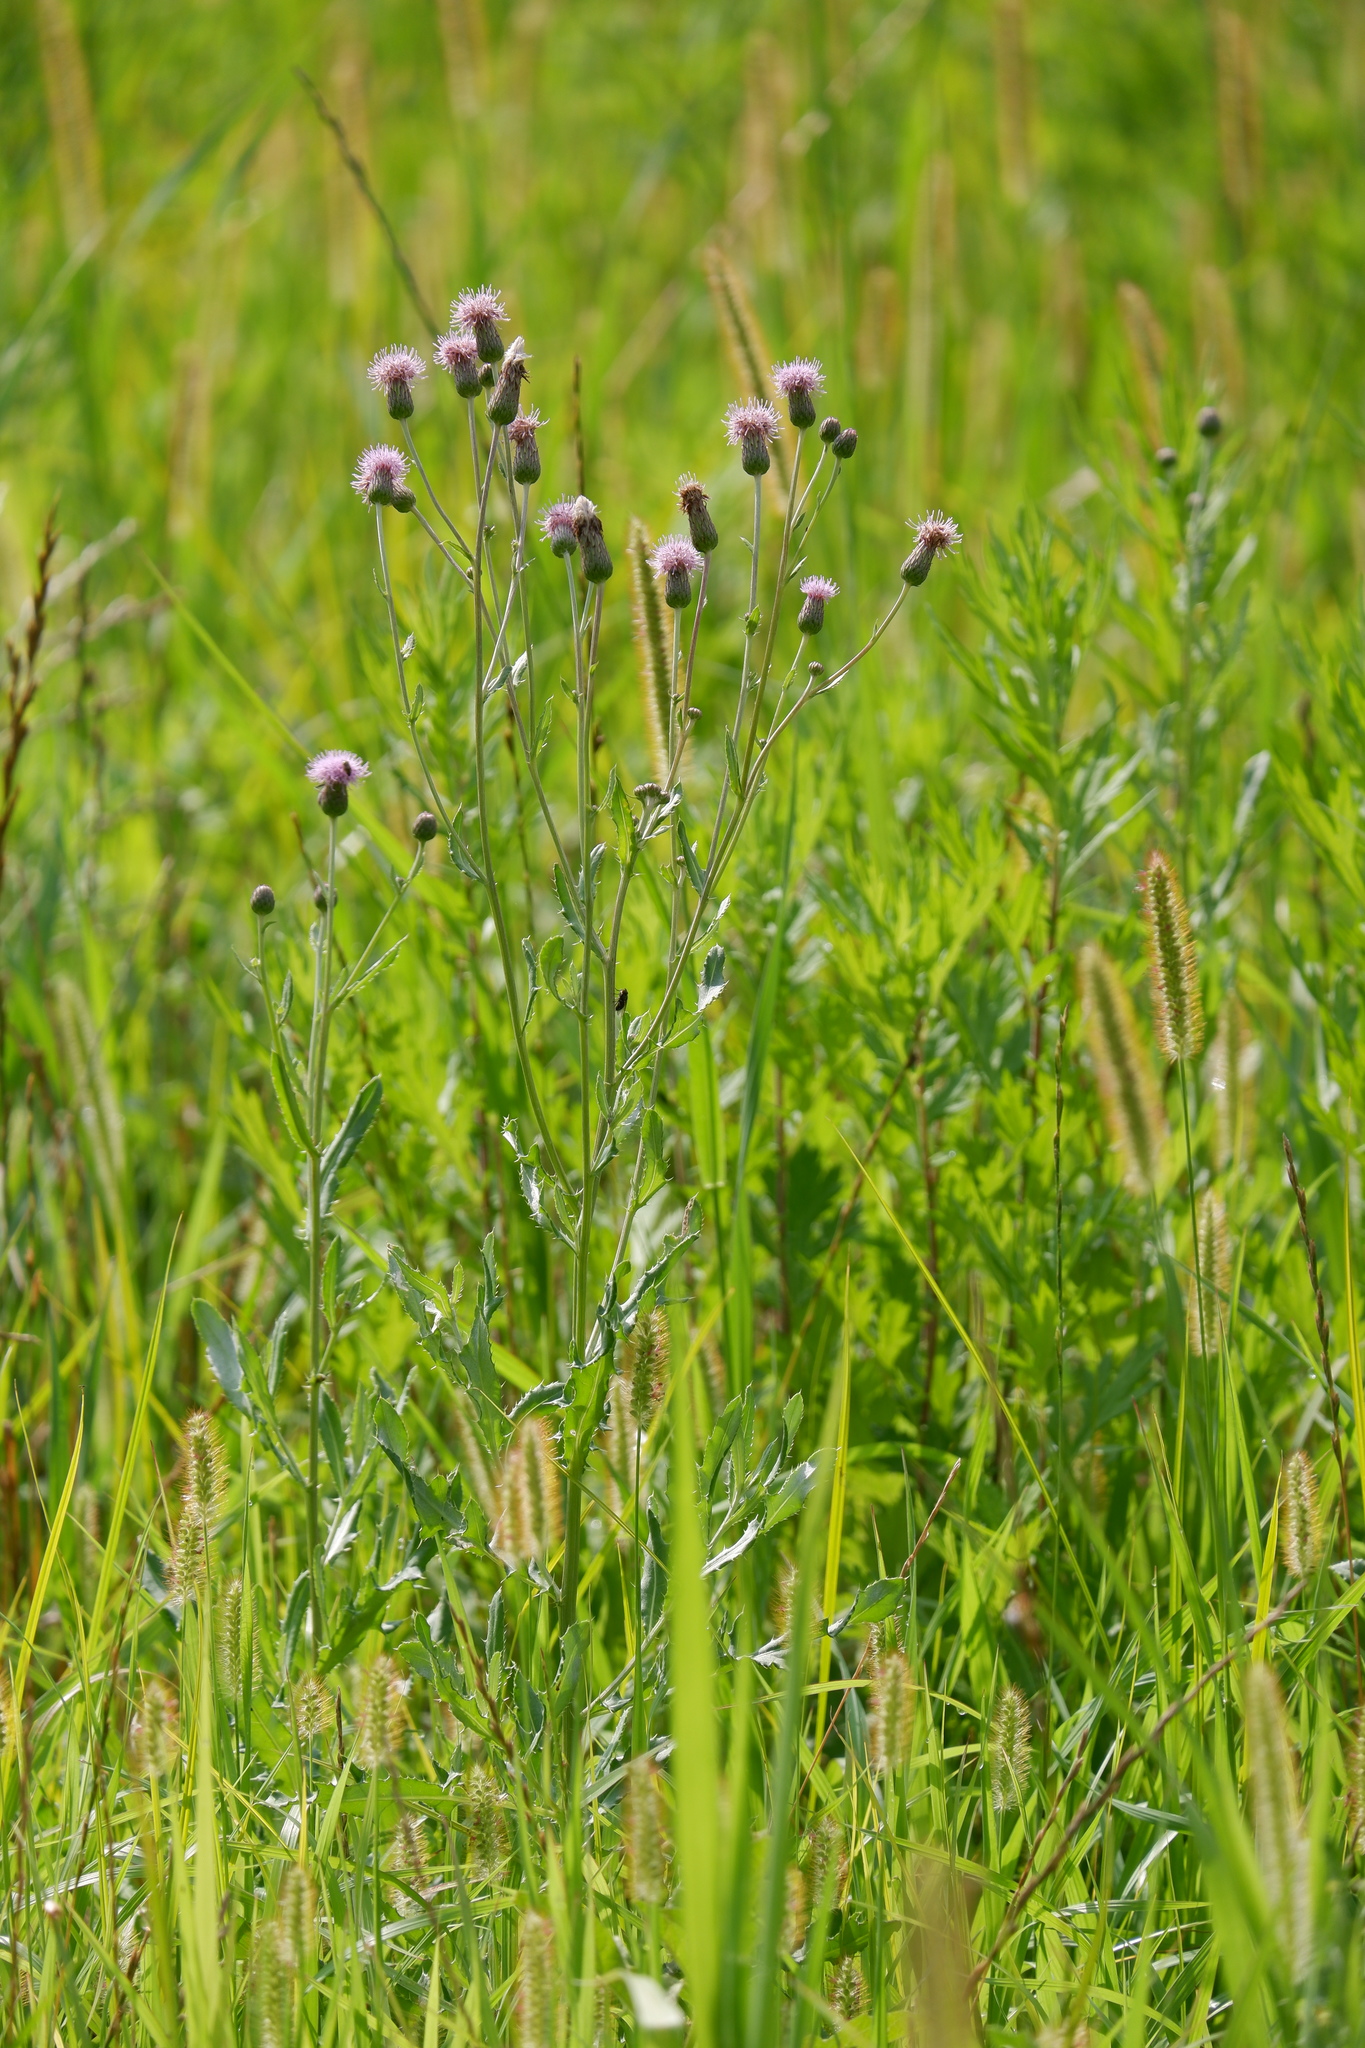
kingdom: Plantae
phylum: Tracheophyta
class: Magnoliopsida
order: Asterales
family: Asteraceae
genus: Cirsium
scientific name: Cirsium arvense
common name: Creeping thistle
